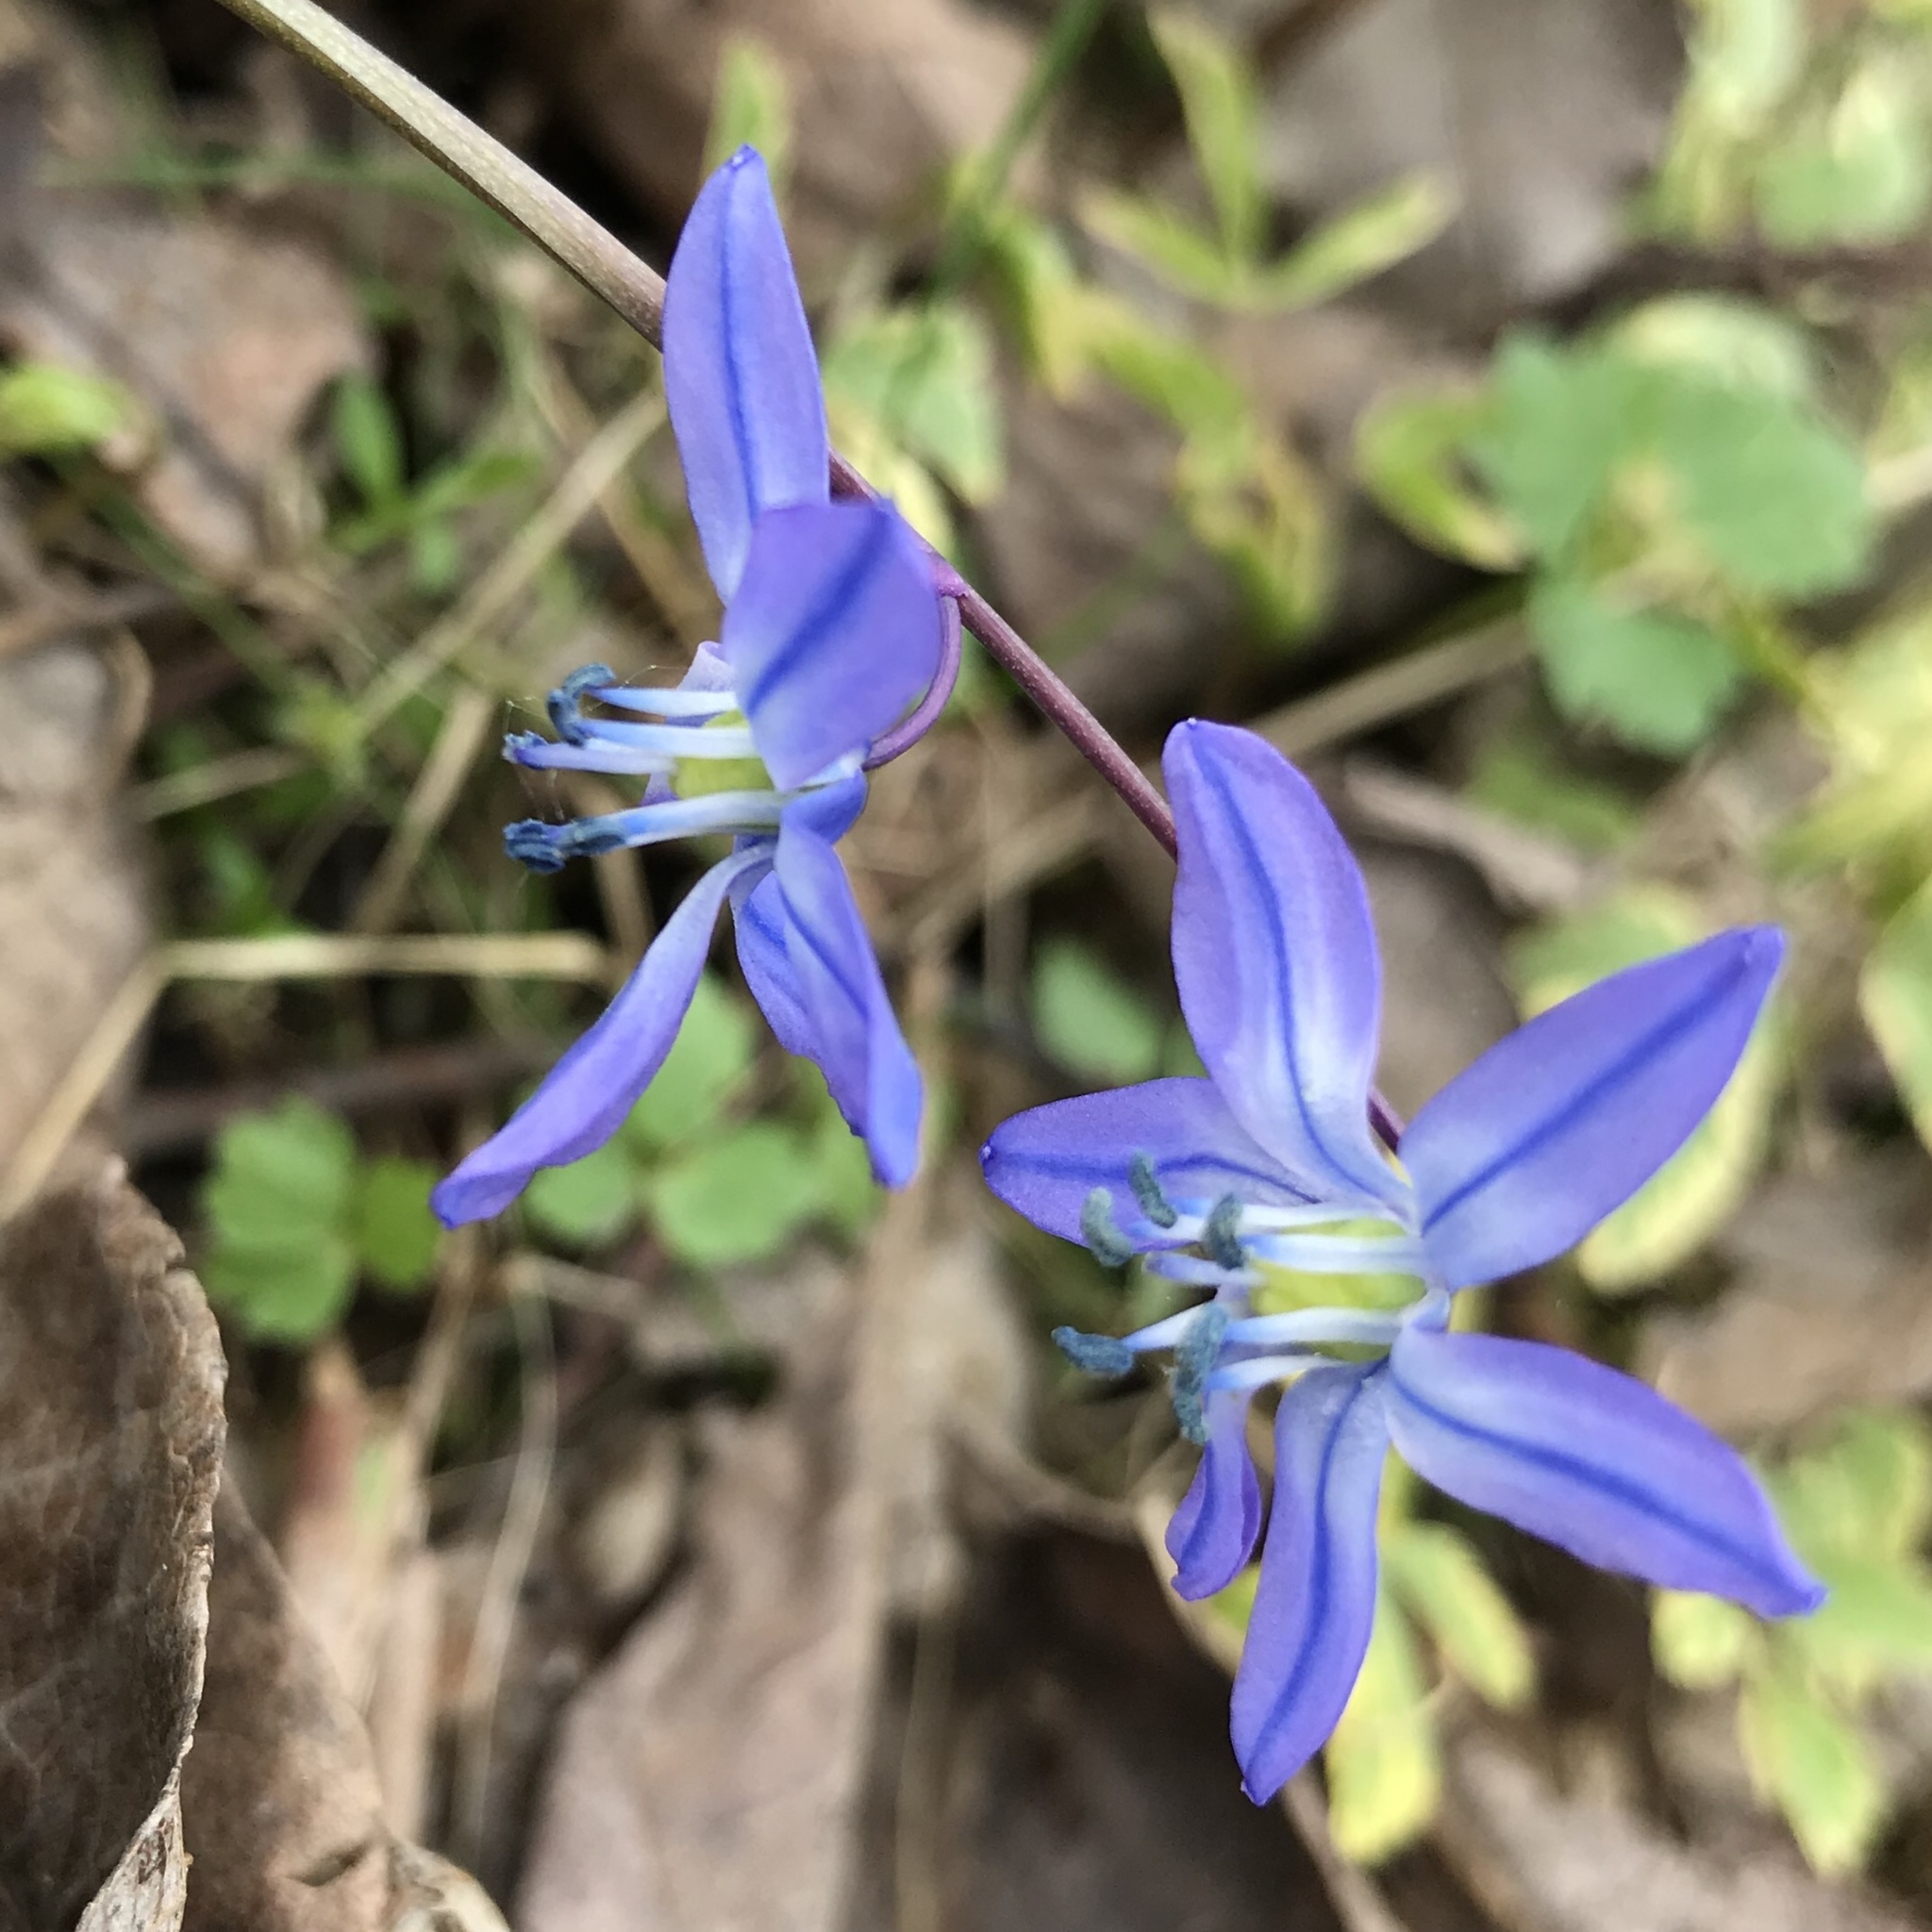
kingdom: Plantae
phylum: Tracheophyta
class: Liliopsida
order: Asparagales
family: Asparagaceae
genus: Scilla
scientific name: Scilla siberica
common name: Siberian squill
